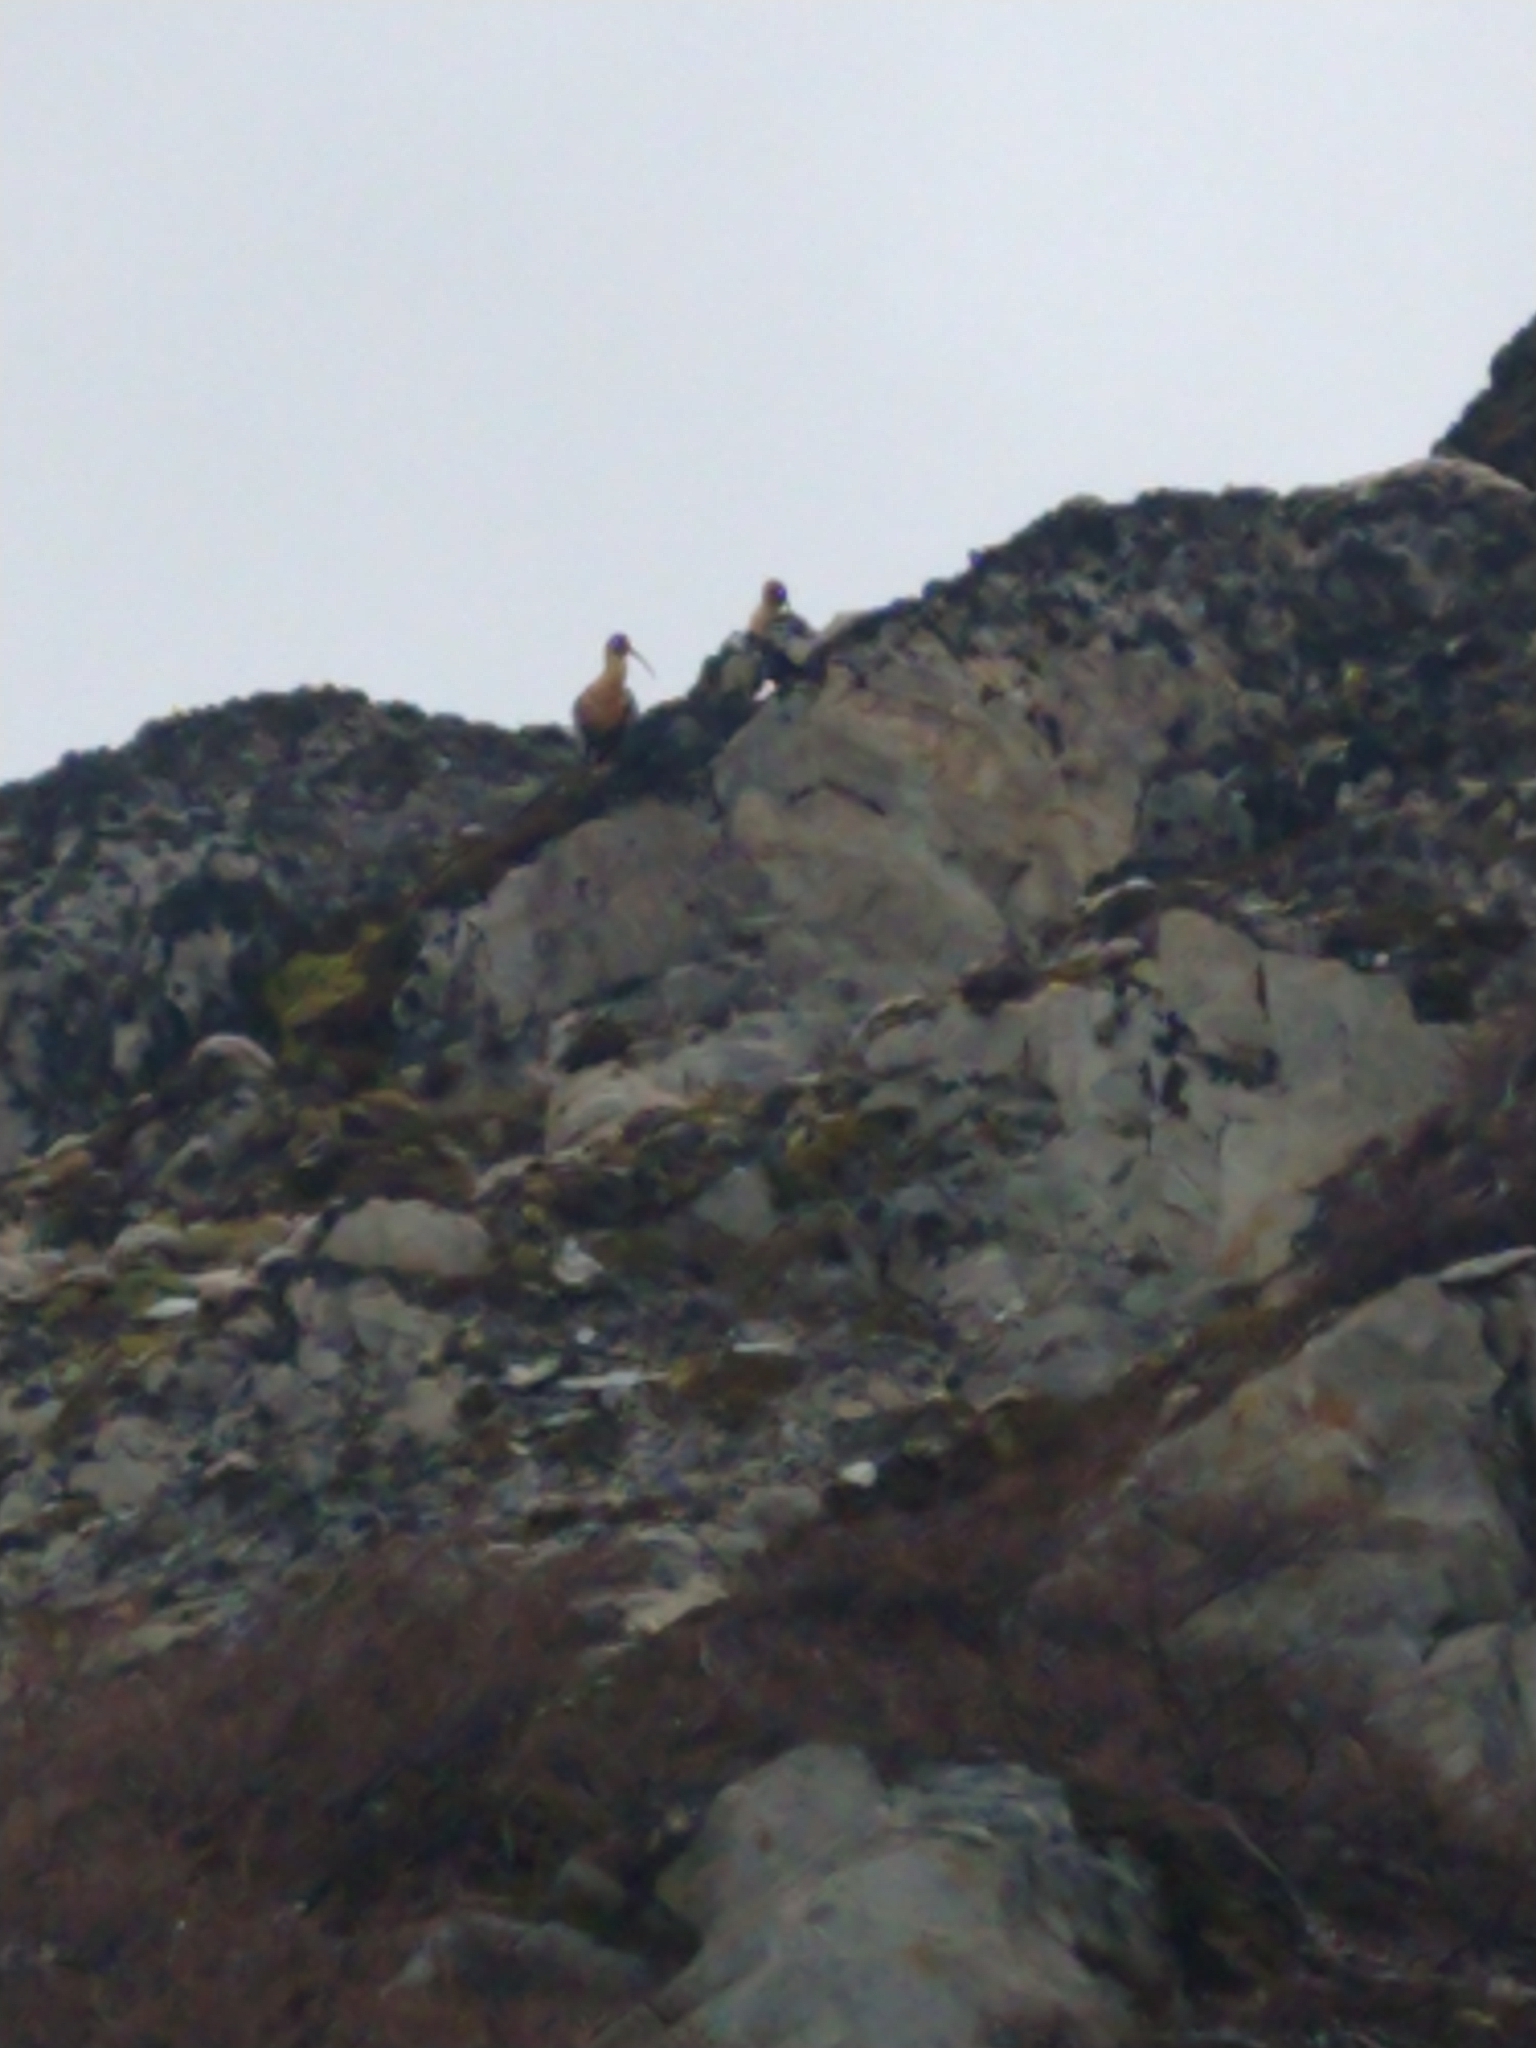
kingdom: Animalia
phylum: Chordata
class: Aves
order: Pelecaniformes
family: Threskiornithidae
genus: Theristicus
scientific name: Theristicus melanopis
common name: Black-faced ibis
